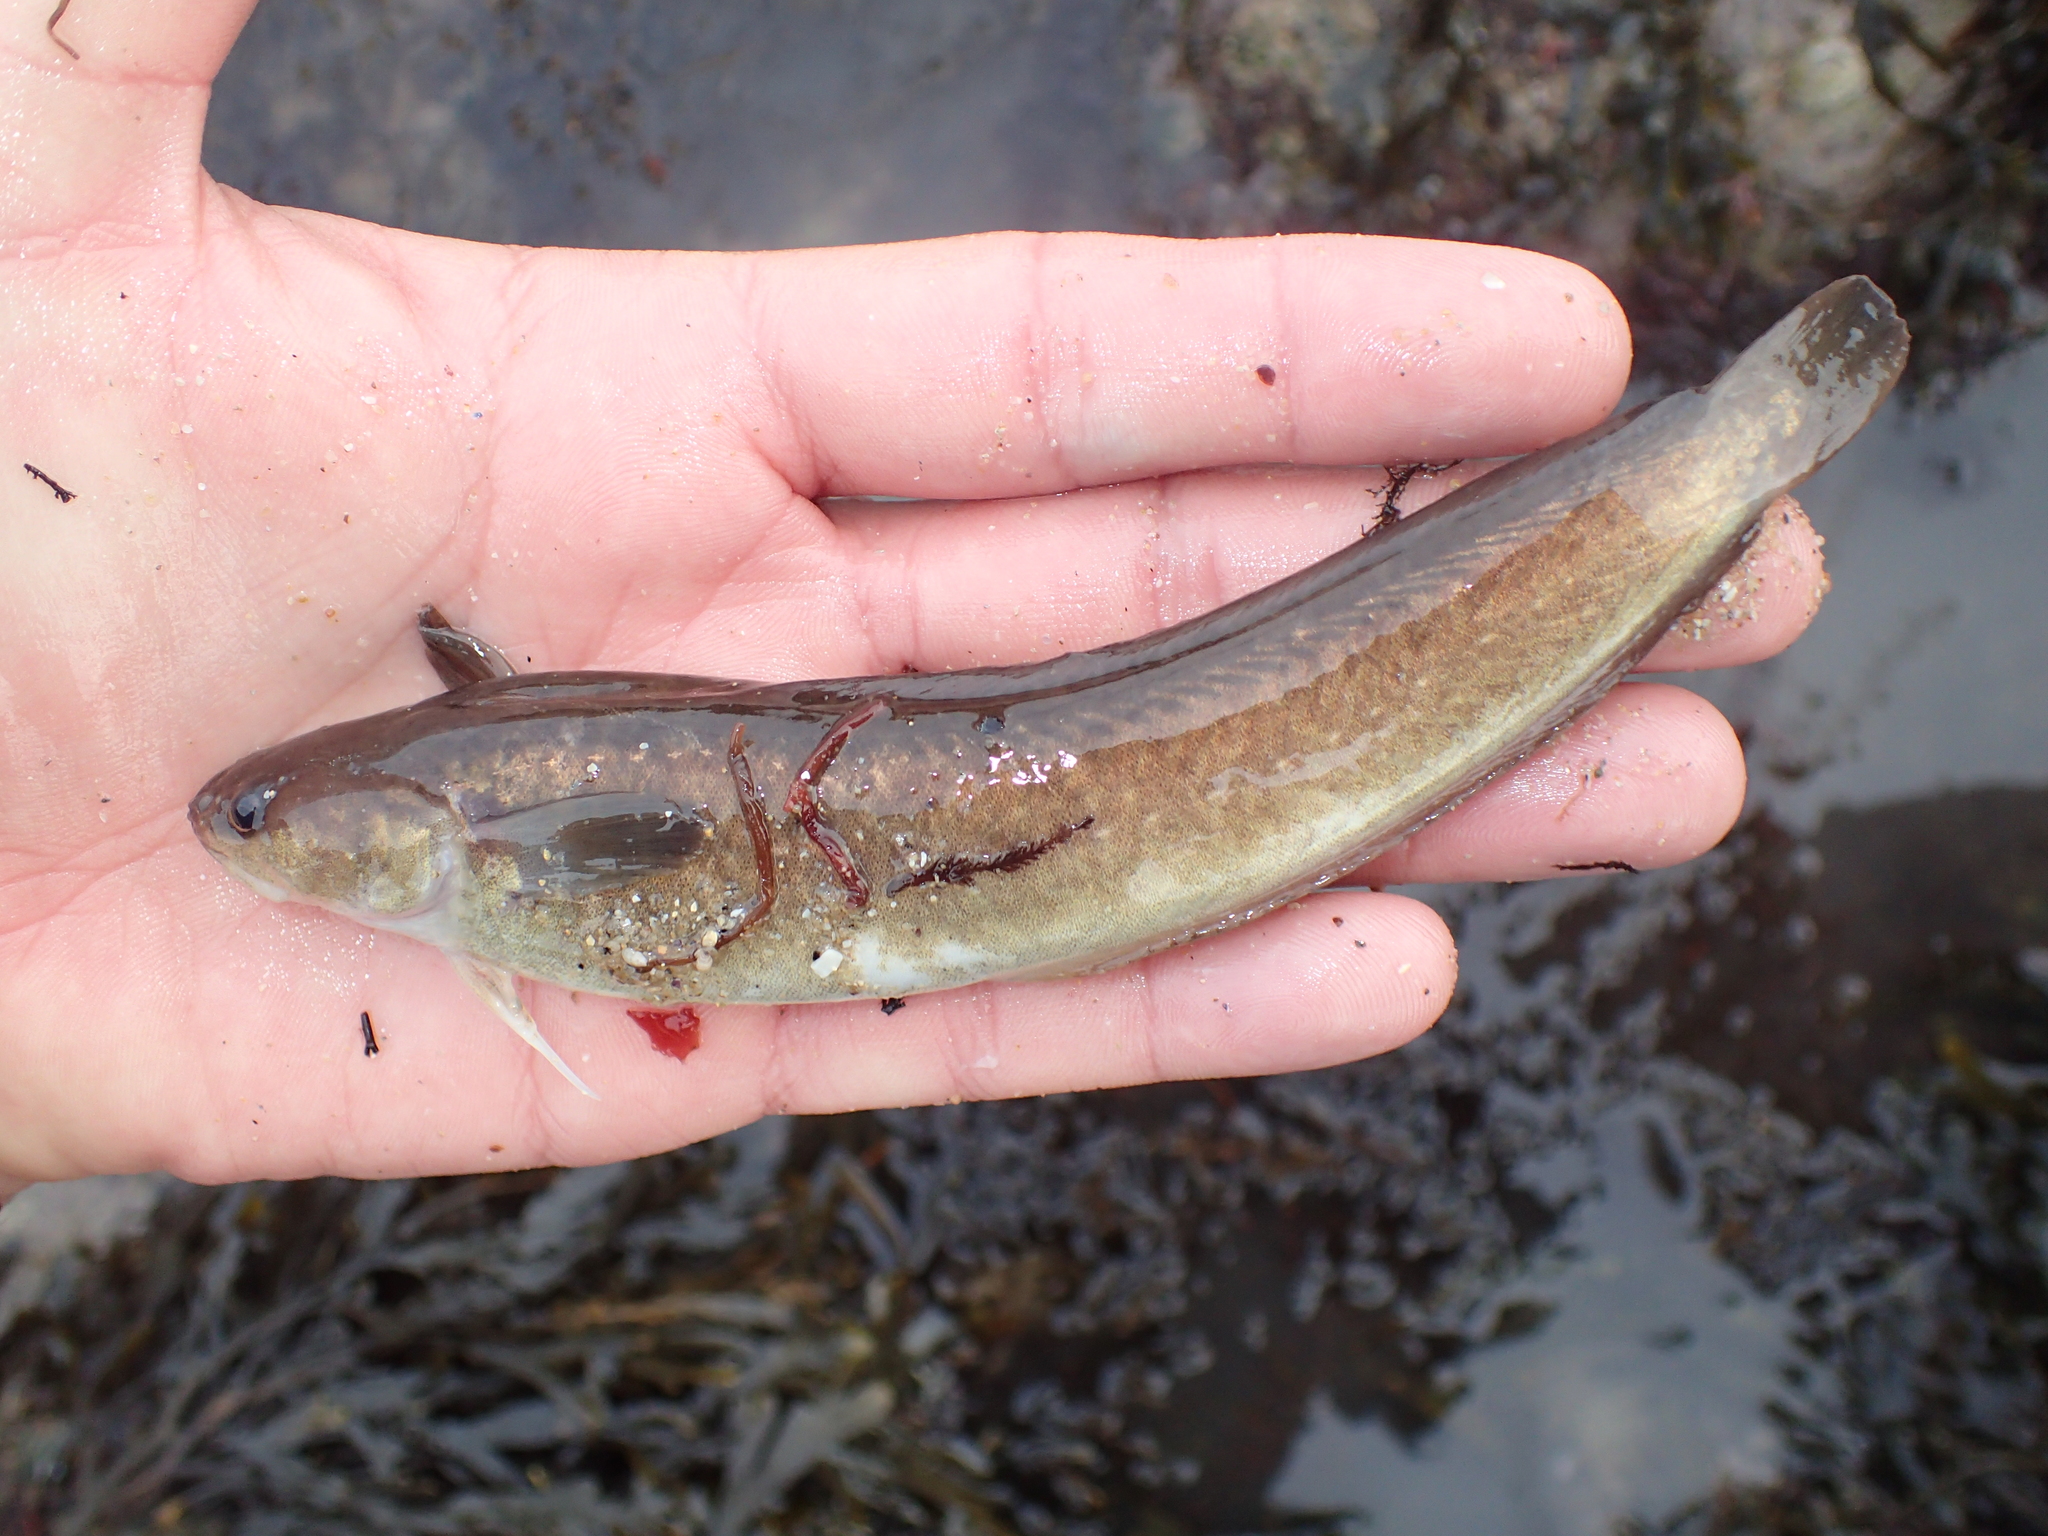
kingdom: Animalia
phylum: Chordata
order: Gadiformes
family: Lotidae
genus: Ciliata
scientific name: Ciliata mustela
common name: Five-bearded rockling
